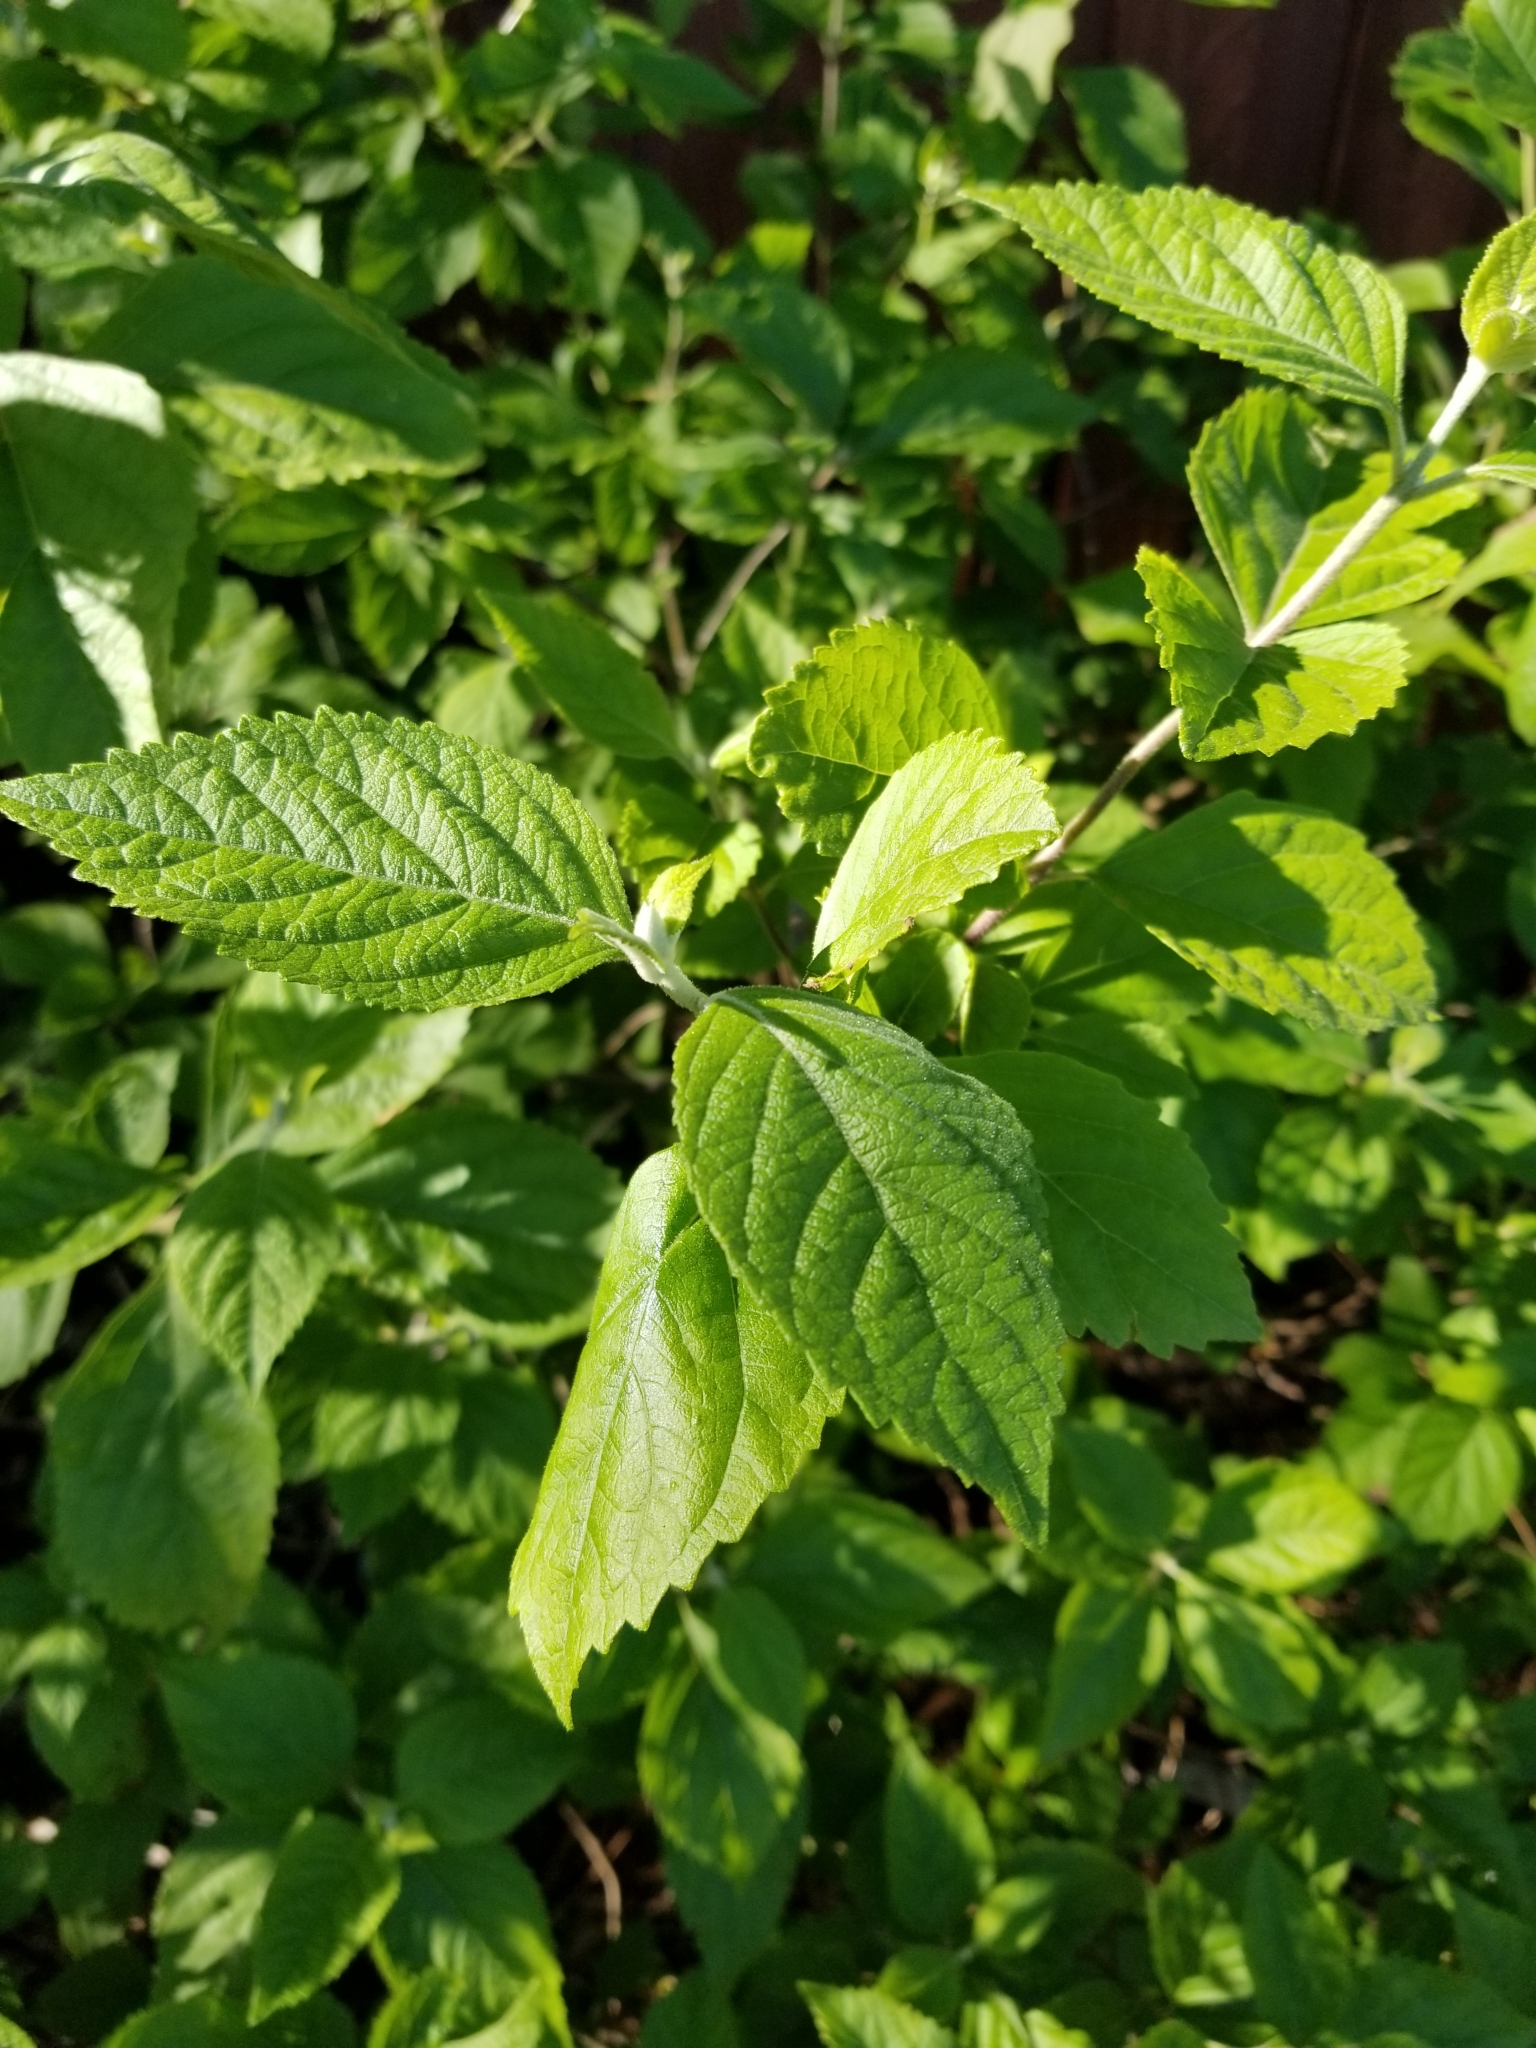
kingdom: Plantae
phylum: Tracheophyta
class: Magnoliopsida
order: Lamiales
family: Lamiaceae
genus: Callicarpa
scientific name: Callicarpa americana
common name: American beautyberry
